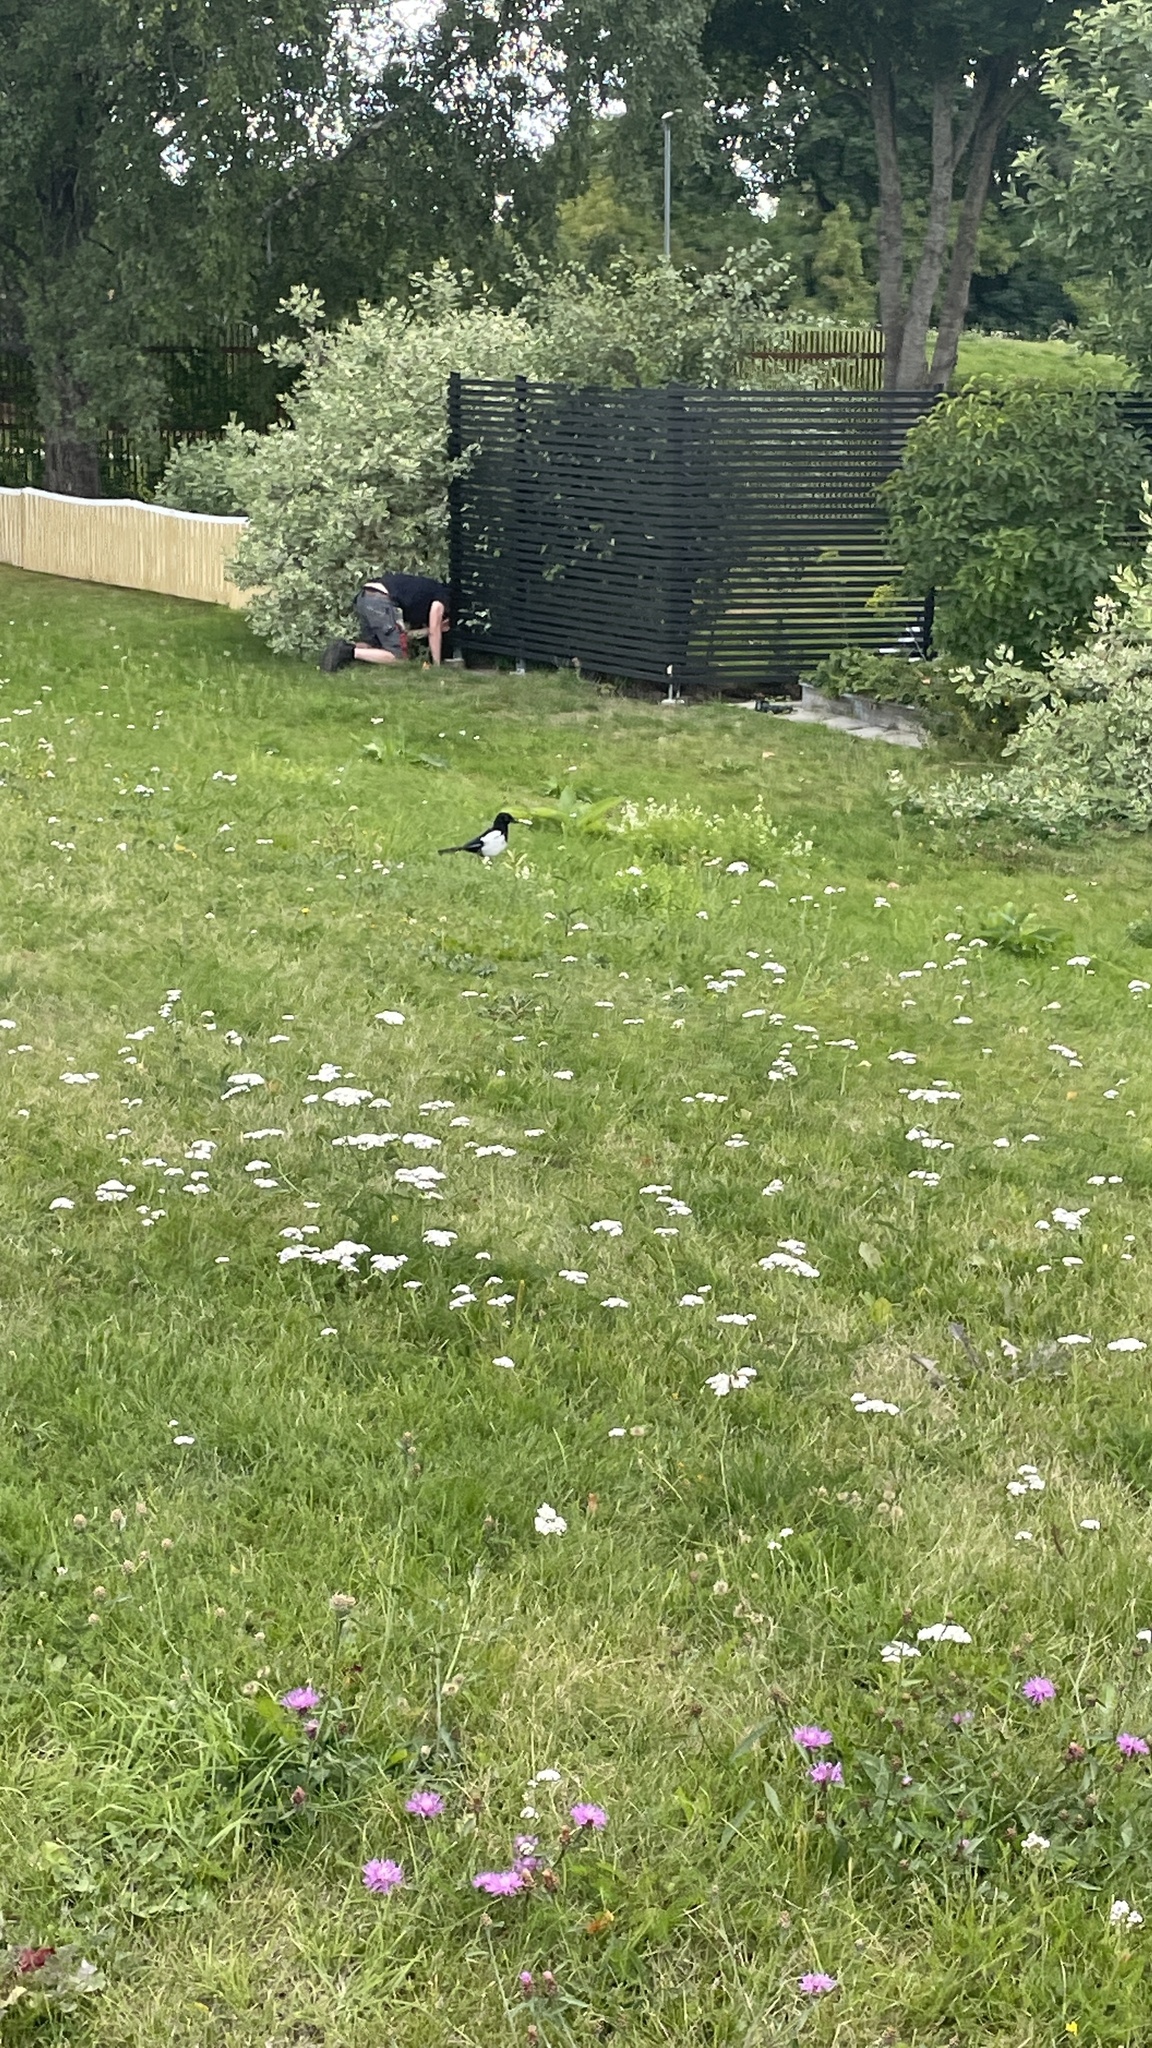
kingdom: Animalia
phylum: Chordata
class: Aves
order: Passeriformes
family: Corvidae
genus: Pica
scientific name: Pica pica
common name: Eurasian magpie
